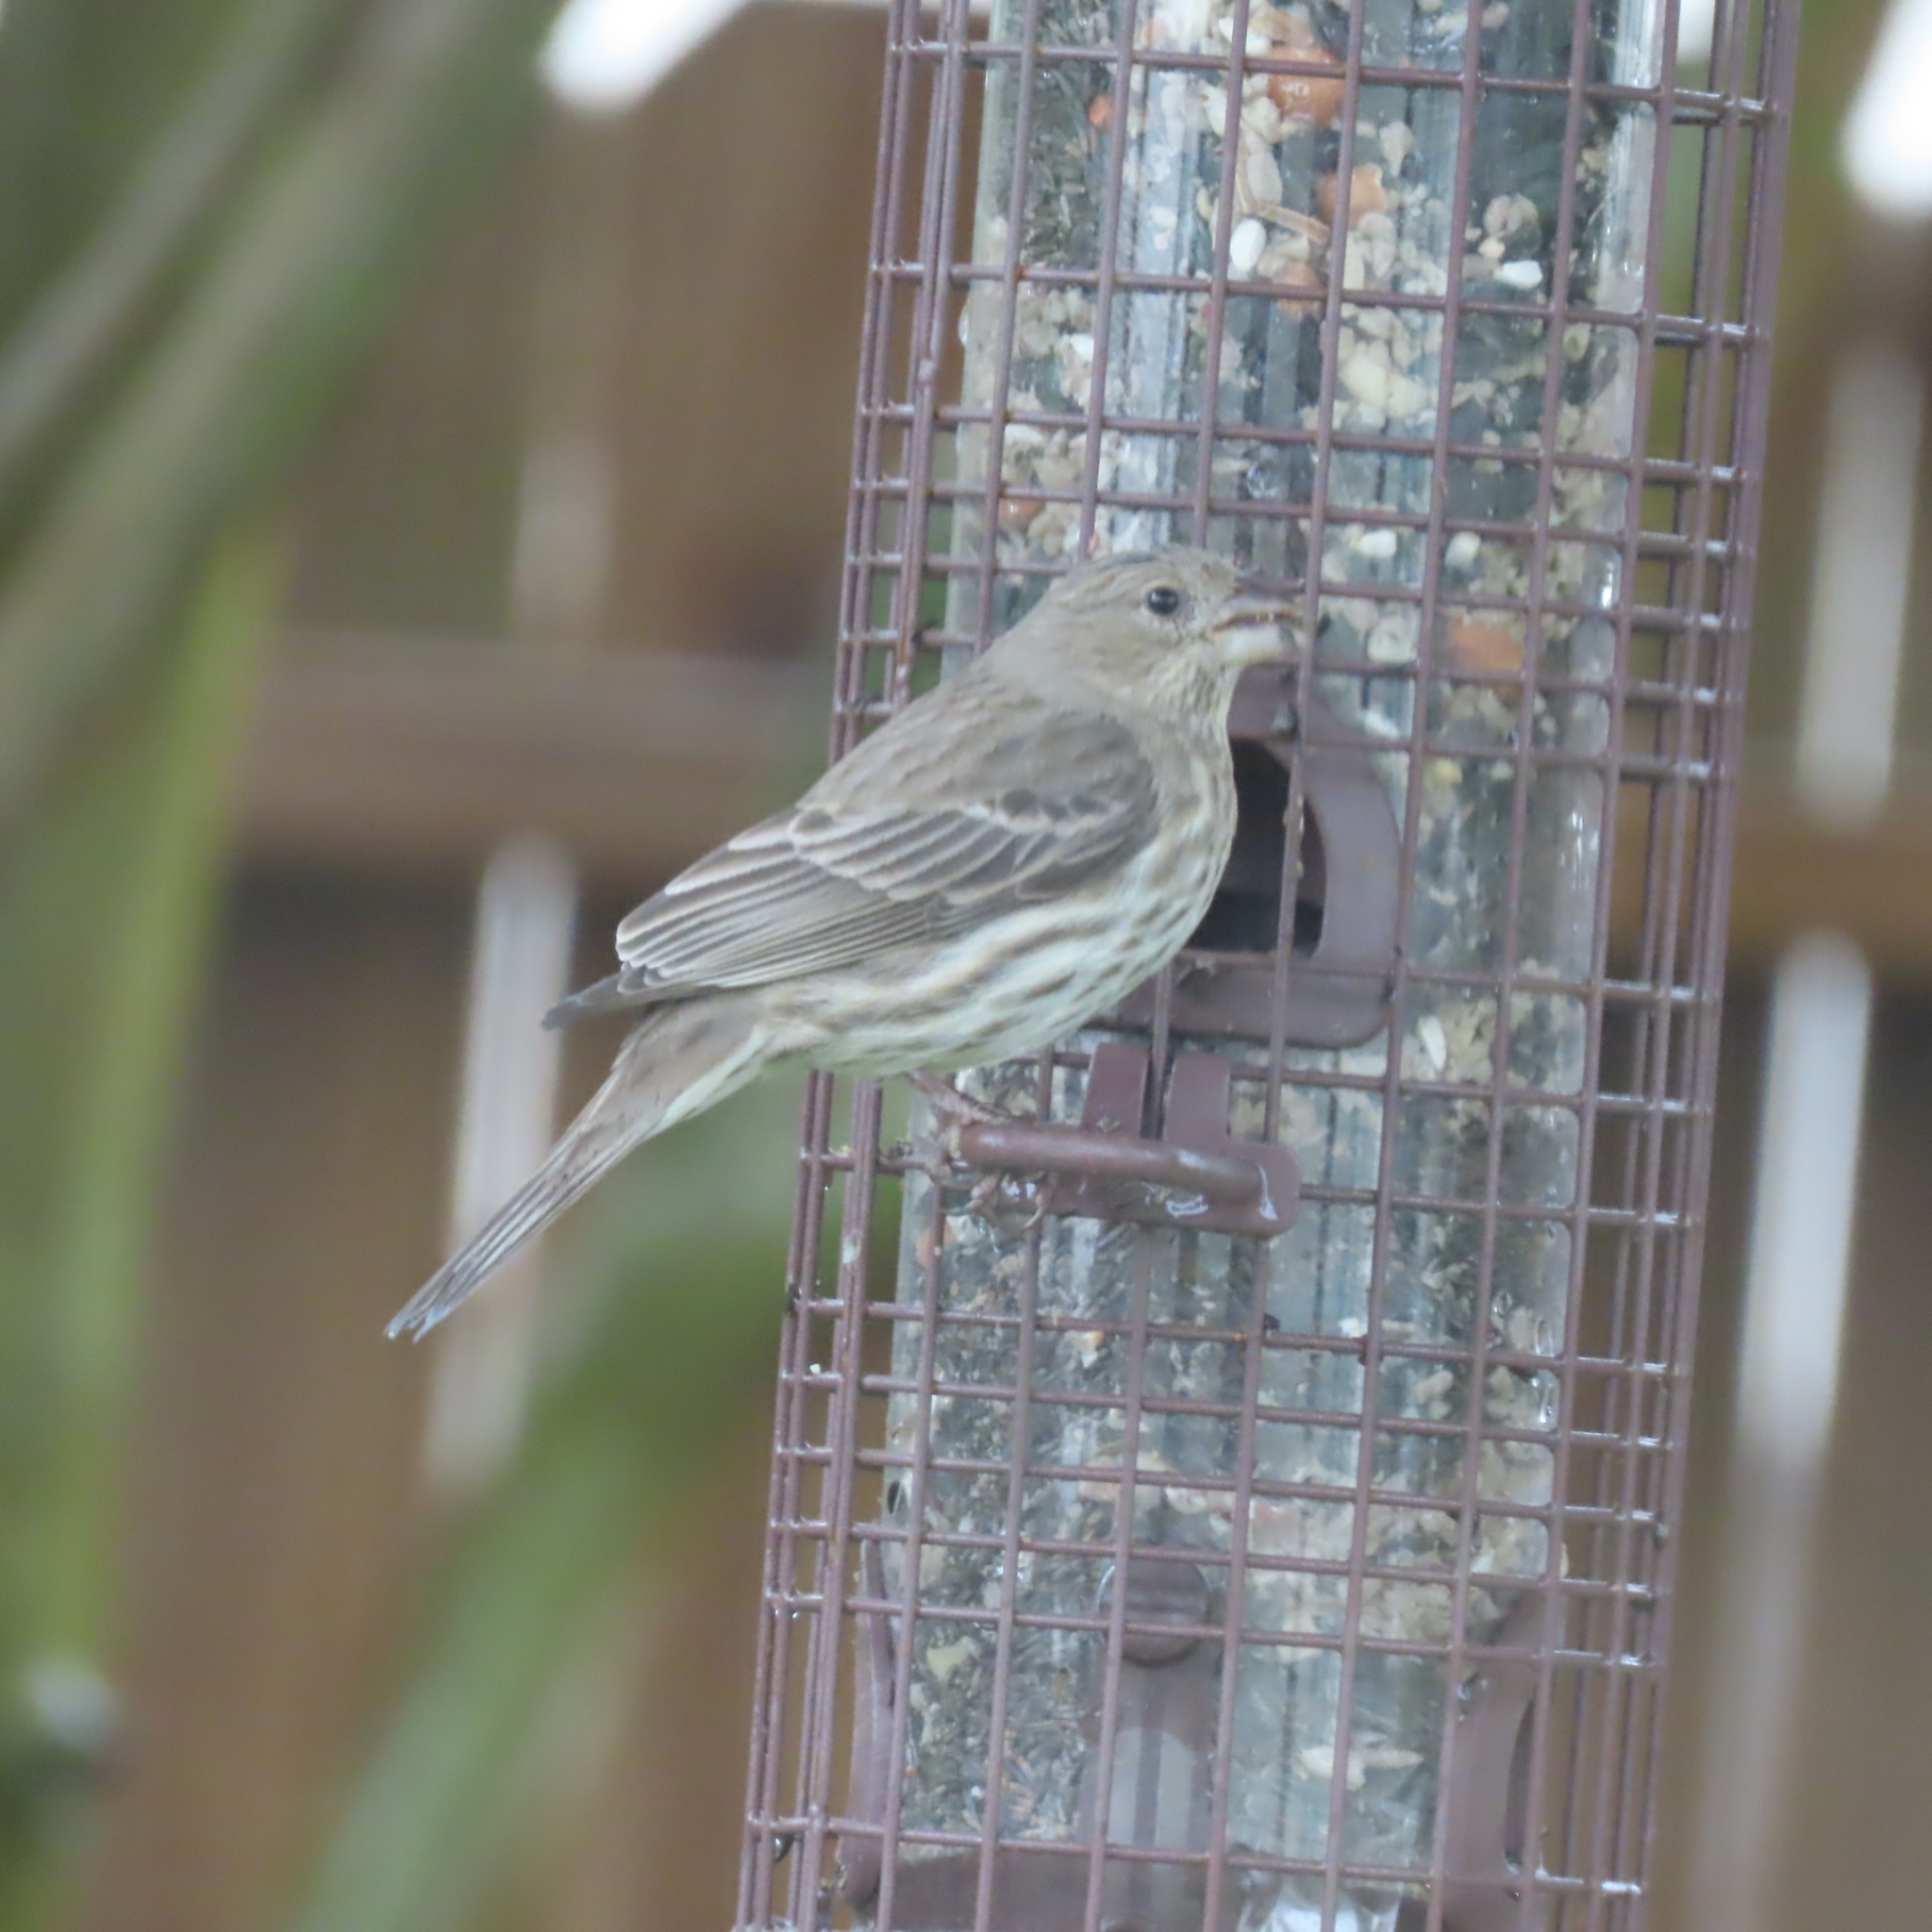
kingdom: Animalia
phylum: Chordata
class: Aves
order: Passeriformes
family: Fringillidae
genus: Haemorhous
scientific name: Haemorhous mexicanus
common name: House finch
